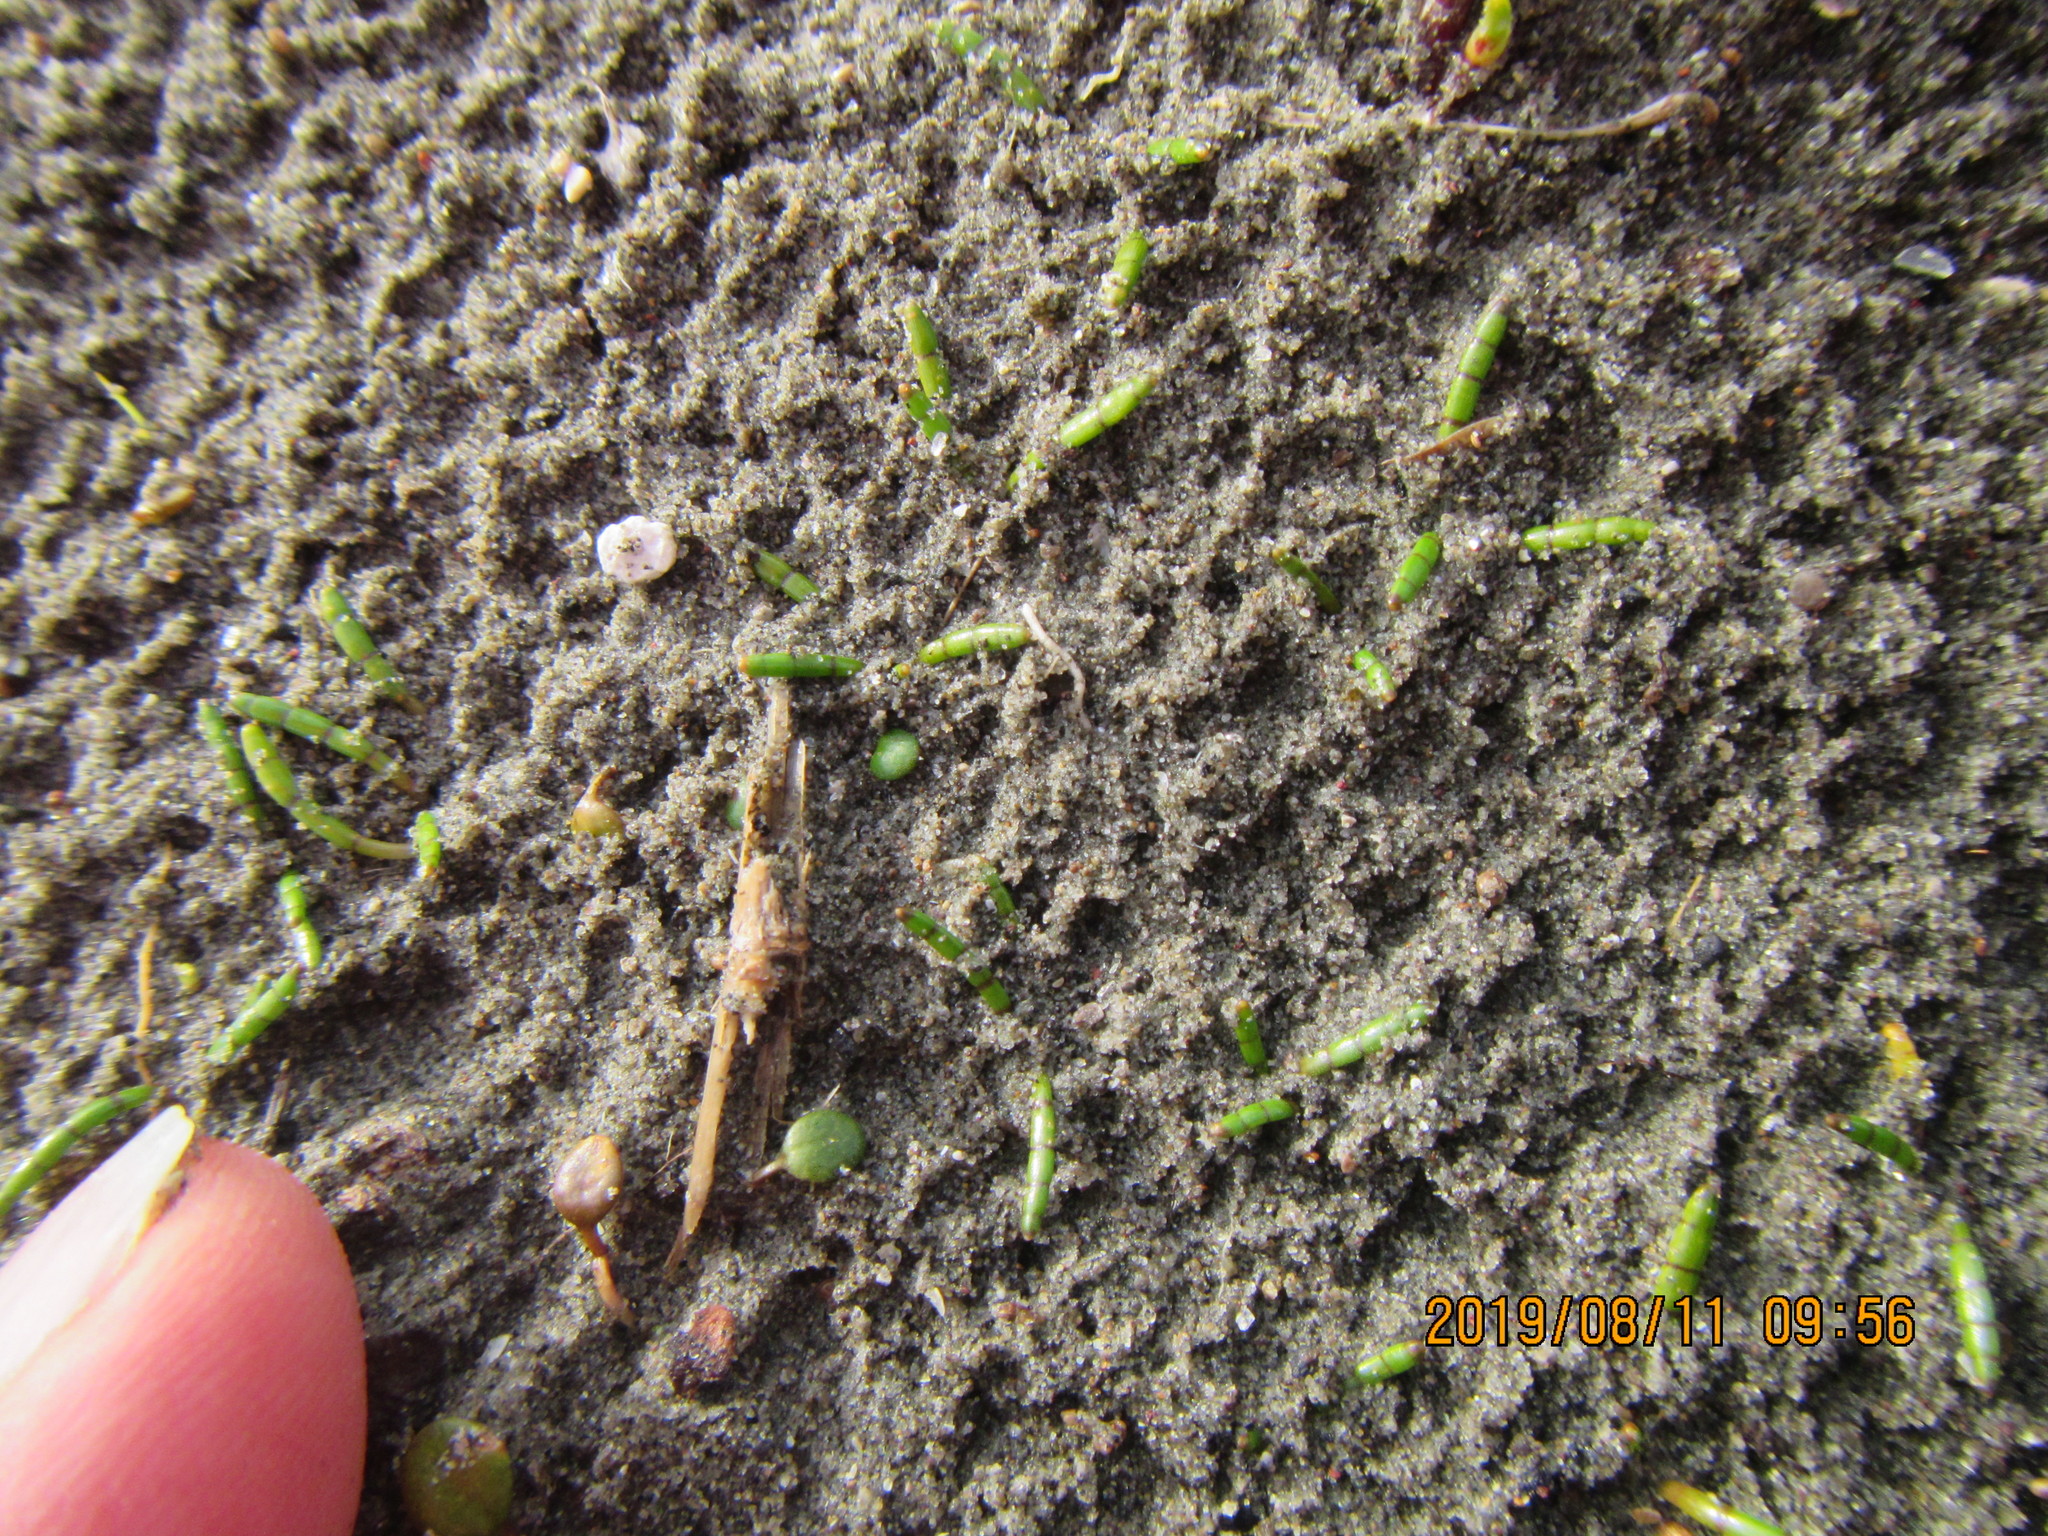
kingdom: Plantae
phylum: Tracheophyta
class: Magnoliopsida
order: Apiales
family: Apiaceae
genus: Lilaeopsis
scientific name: Lilaeopsis novae-zelandiae
